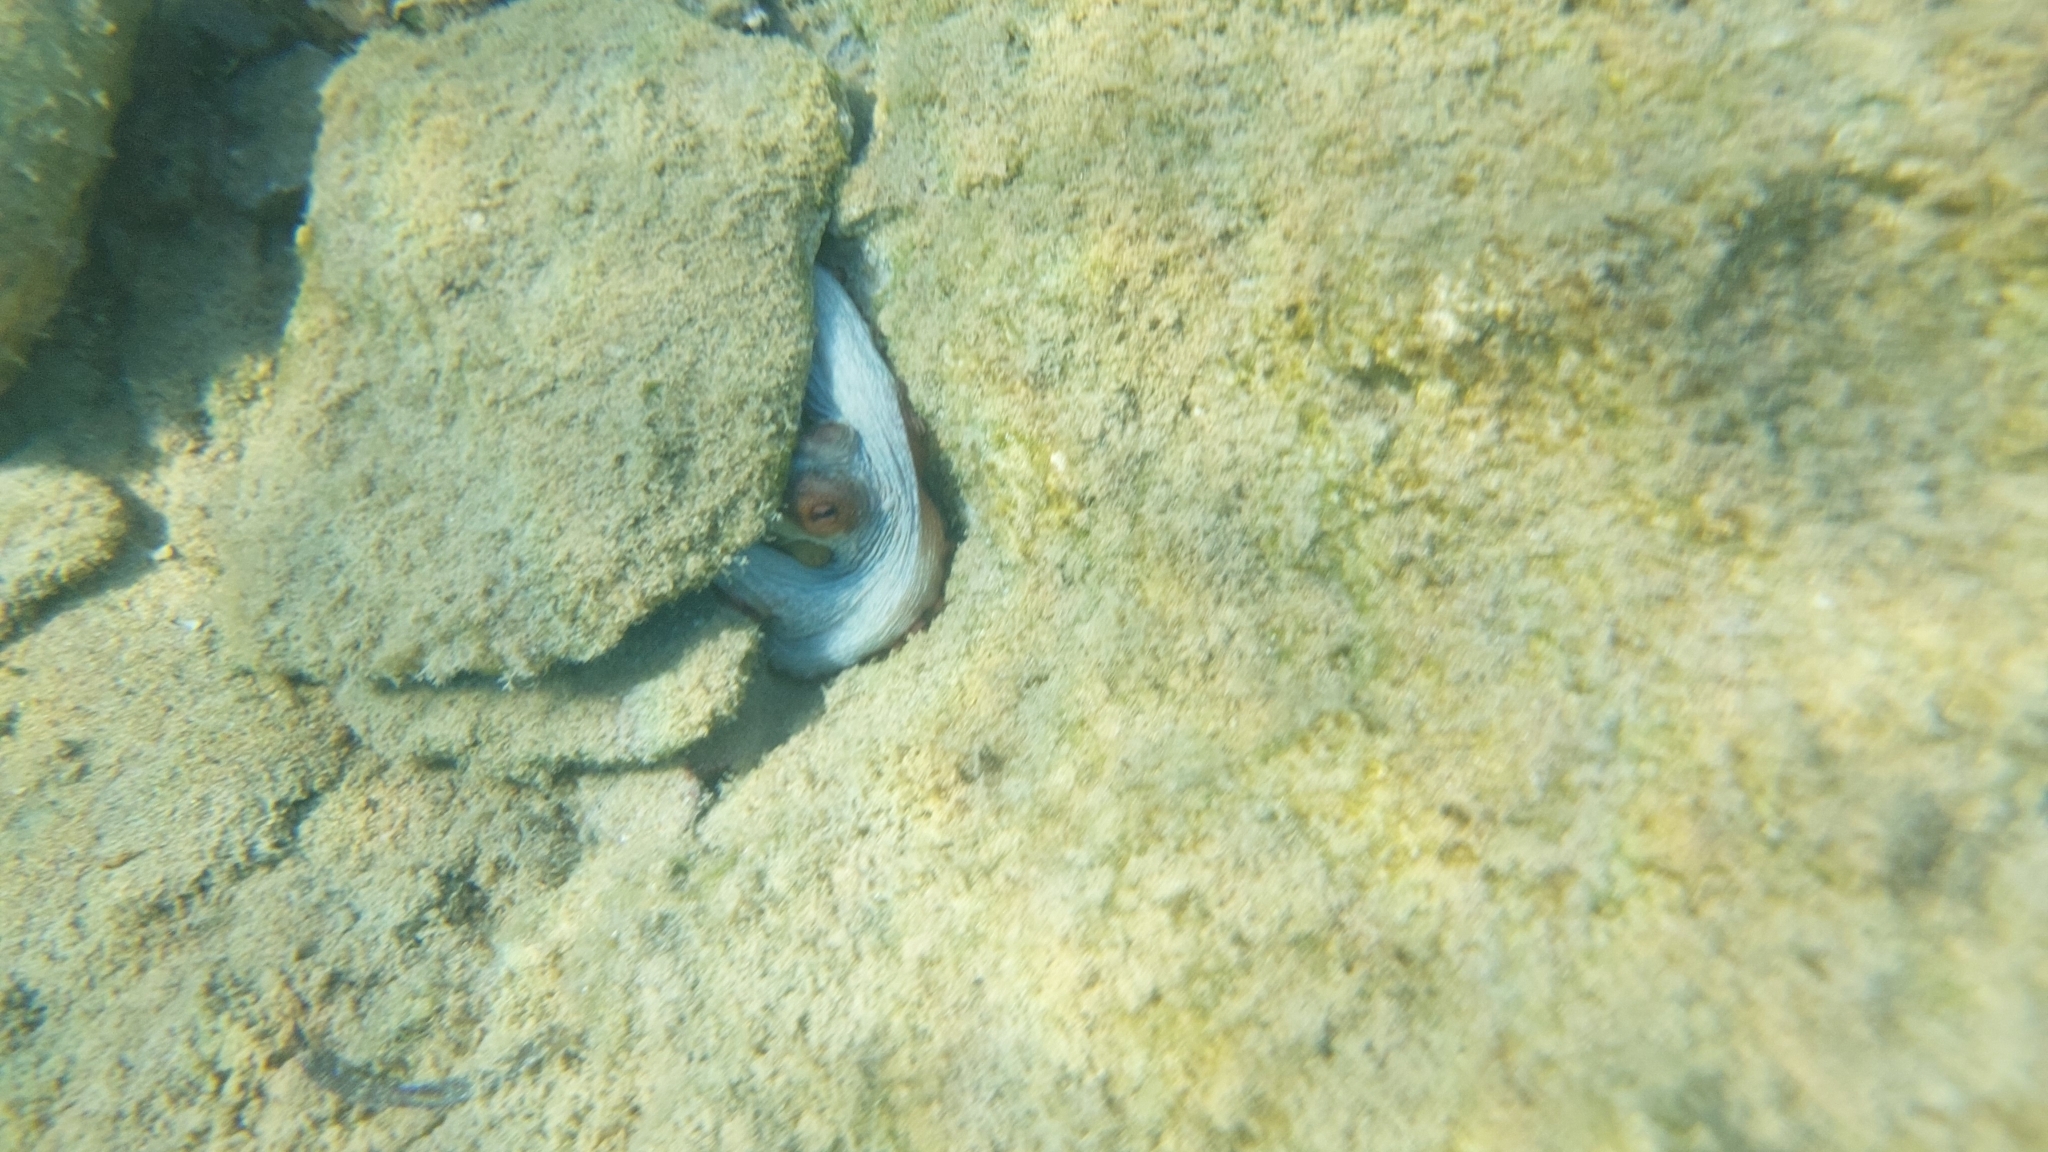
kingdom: Animalia
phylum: Mollusca
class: Cephalopoda
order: Octopoda
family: Octopodidae
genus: Octopus
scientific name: Octopus vulgaris
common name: Common octopus
